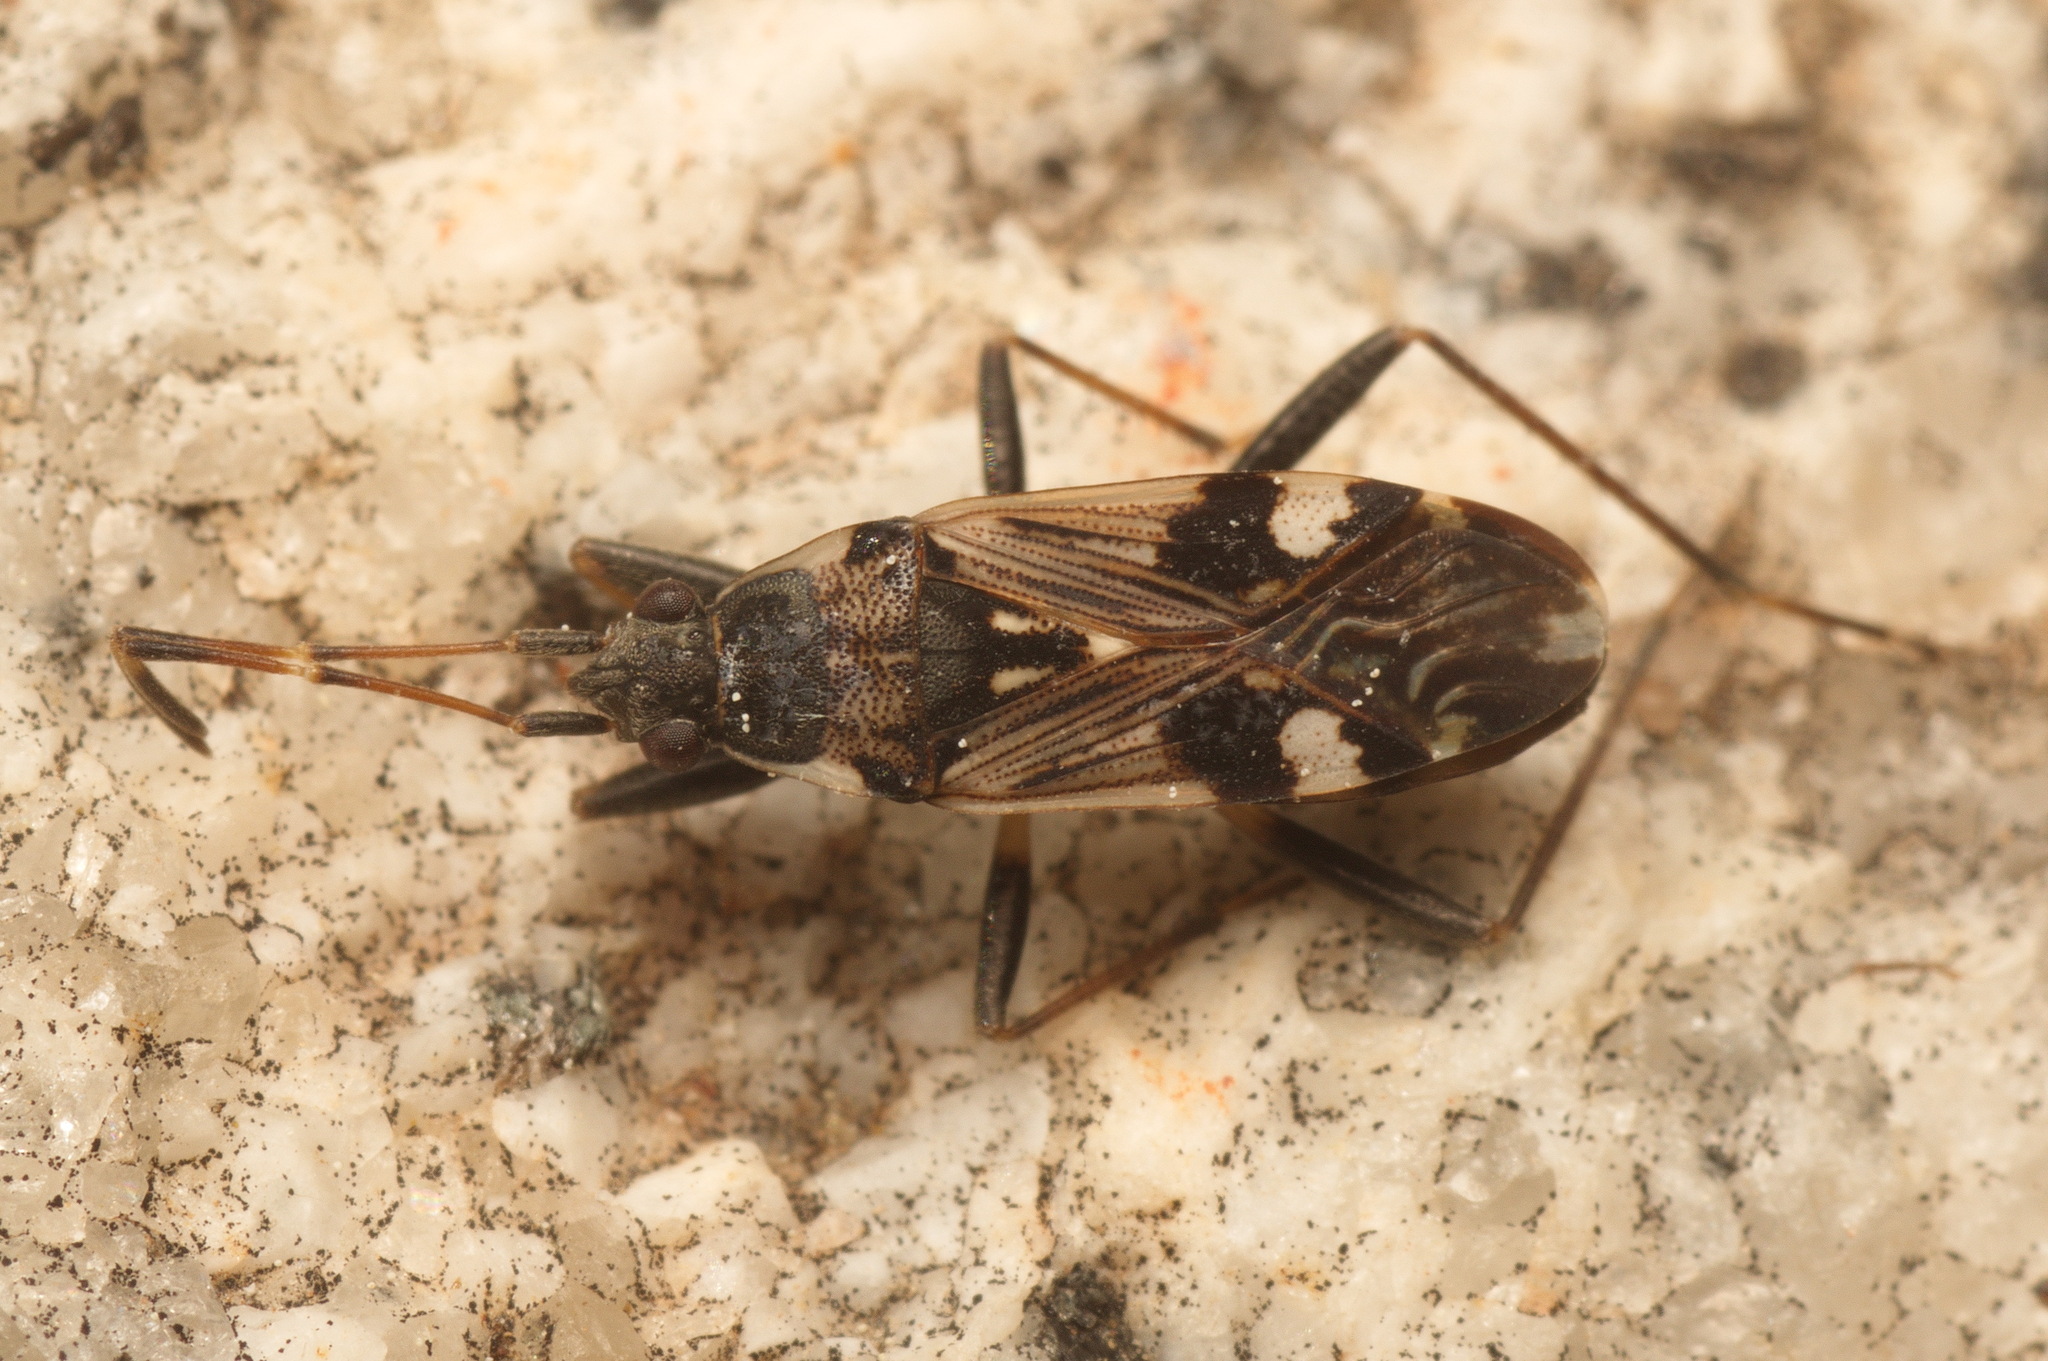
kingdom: Animalia
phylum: Arthropoda
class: Insecta
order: Hemiptera
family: Rhyparochromidae
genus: Beosus
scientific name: Beosus maritimus
